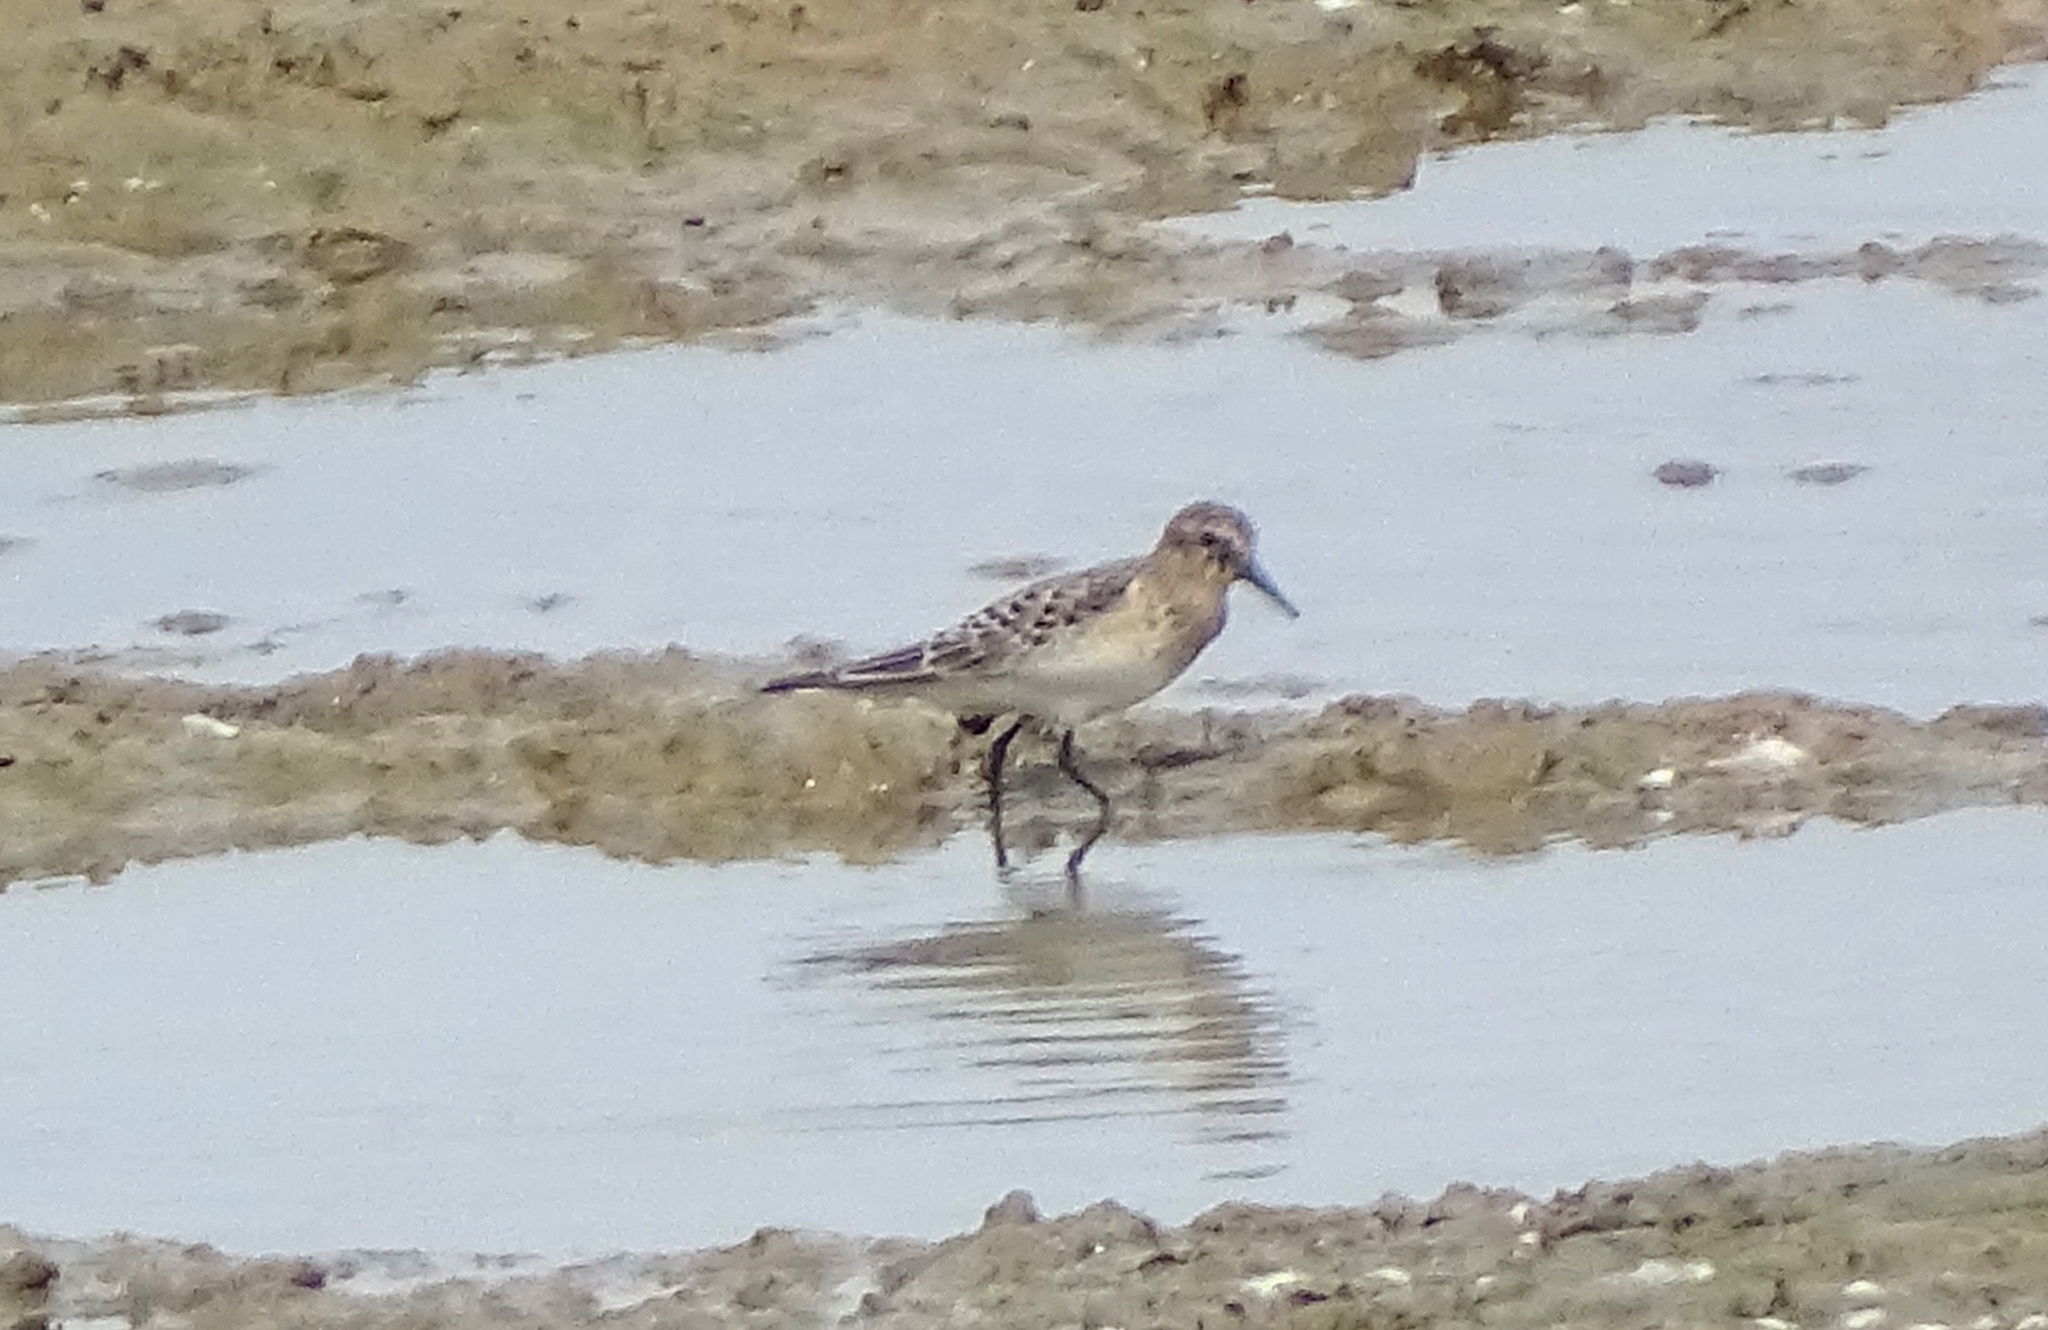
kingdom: Animalia
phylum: Chordata
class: Aves
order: Charadriiformes
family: Scolopacidae
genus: Calidris
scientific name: Calidris bairdii
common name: Baird's sandpiper
